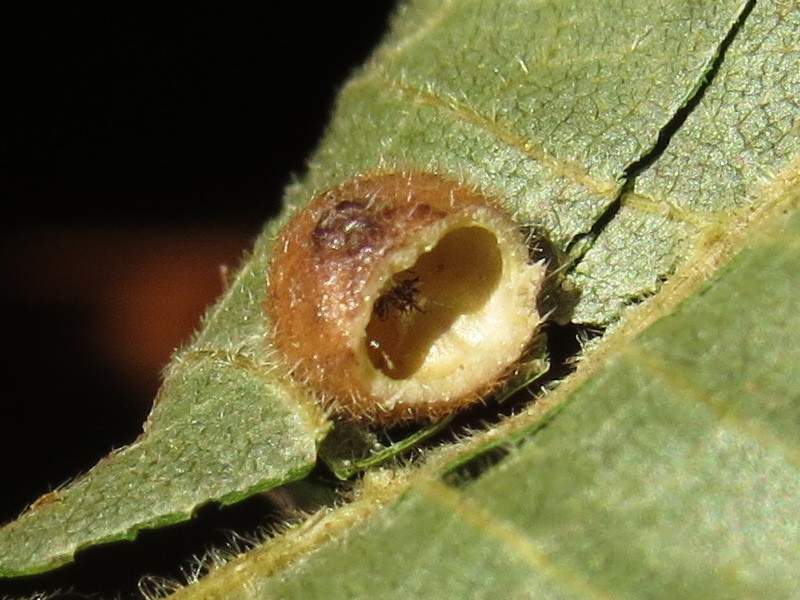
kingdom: Animalia
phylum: Arthropoda
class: Insecta
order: Diptera
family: Cecidomyiidae
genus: Caryomyia
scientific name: Caryomyia thompsoni
